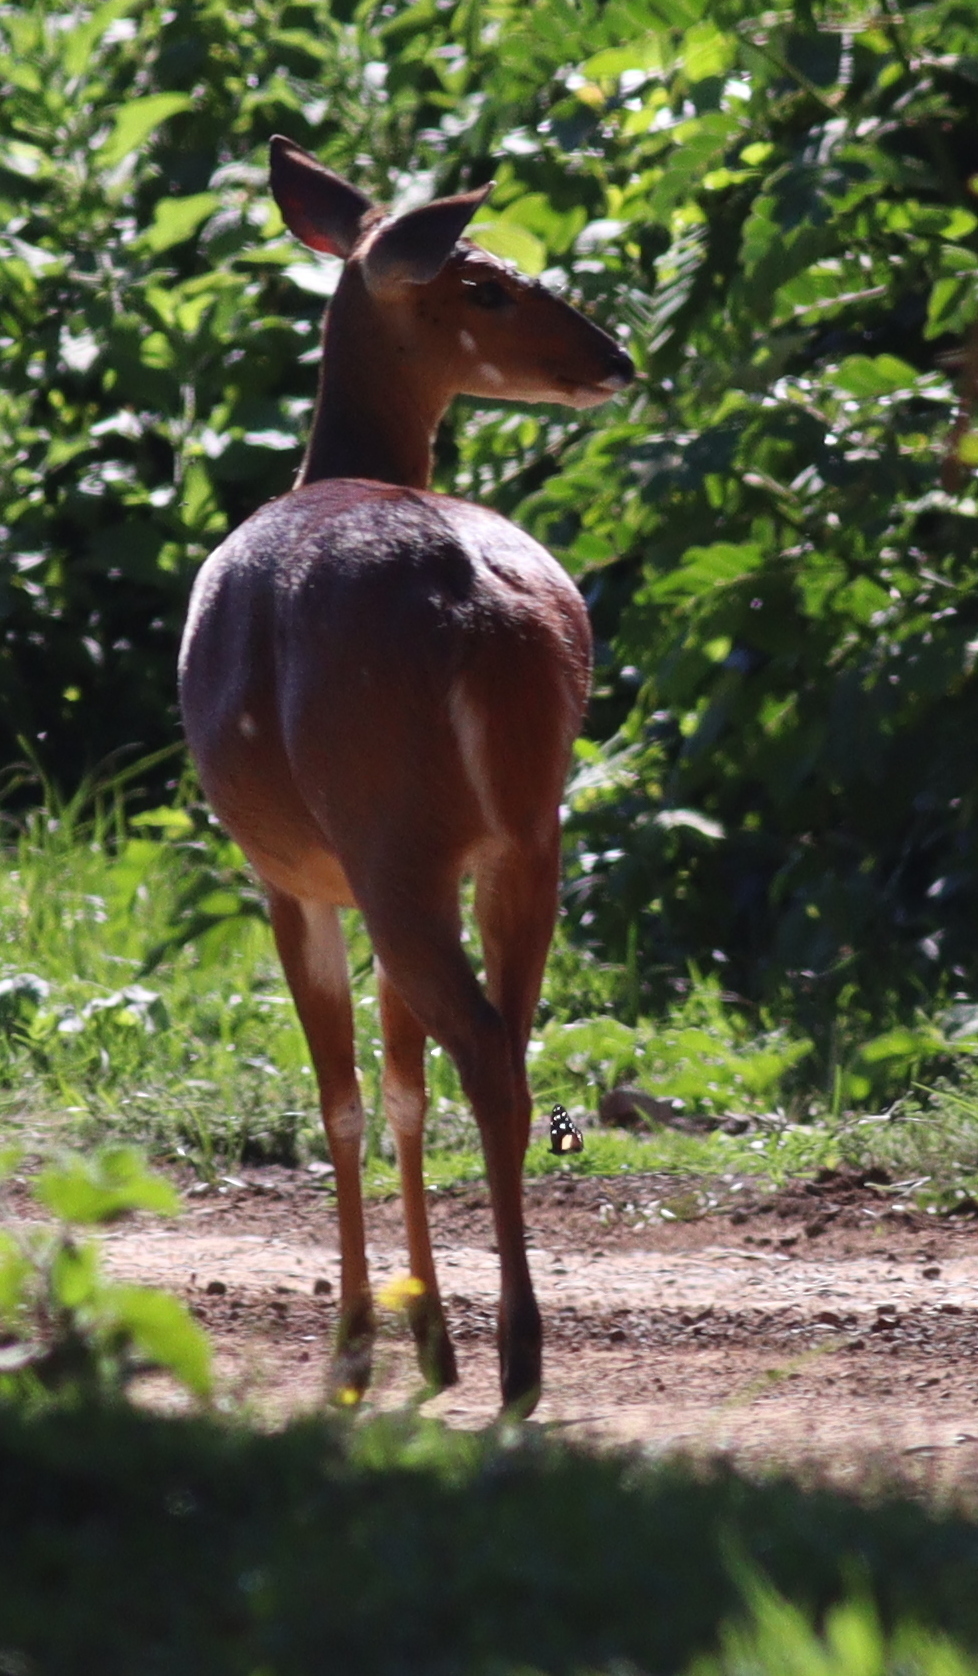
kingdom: Animalia
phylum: Chordata
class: Mammalia
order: Artiodactyla
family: Bovidae
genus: Tragelaphus
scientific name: Tragelaphus scriptus
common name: Bushbuck
